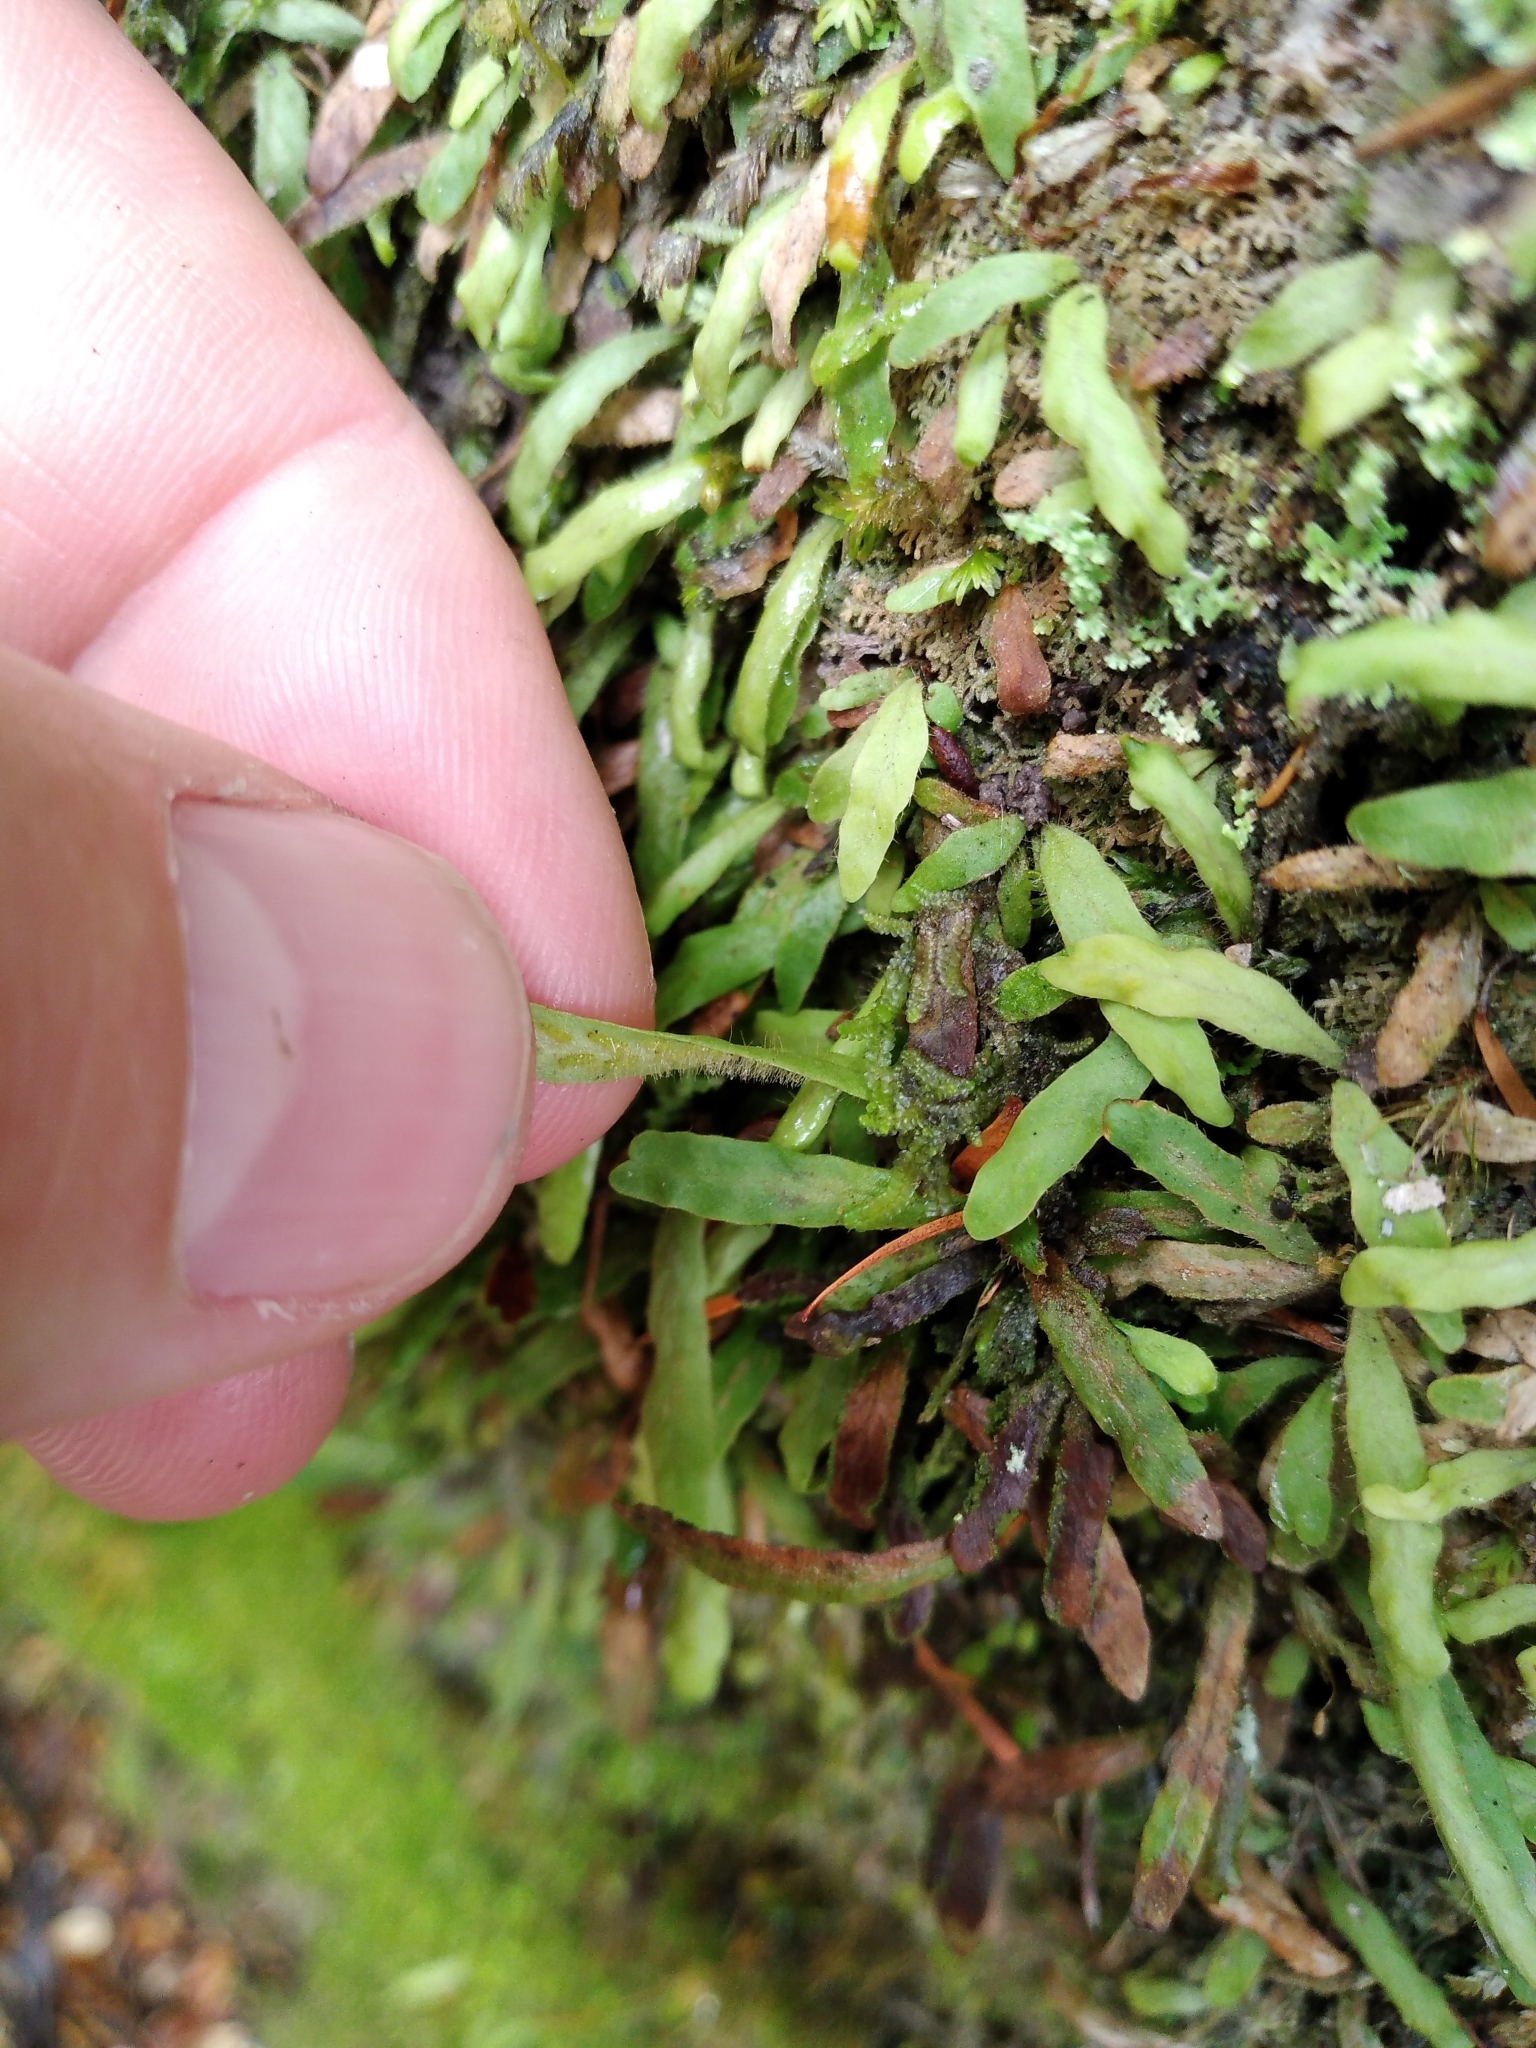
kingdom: Plantae
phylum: Tracheophyta
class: Polypodiopsida
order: Polypodiales
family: Polypodiaceae
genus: Notogrammitis
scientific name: Notogrammitis ciliata
